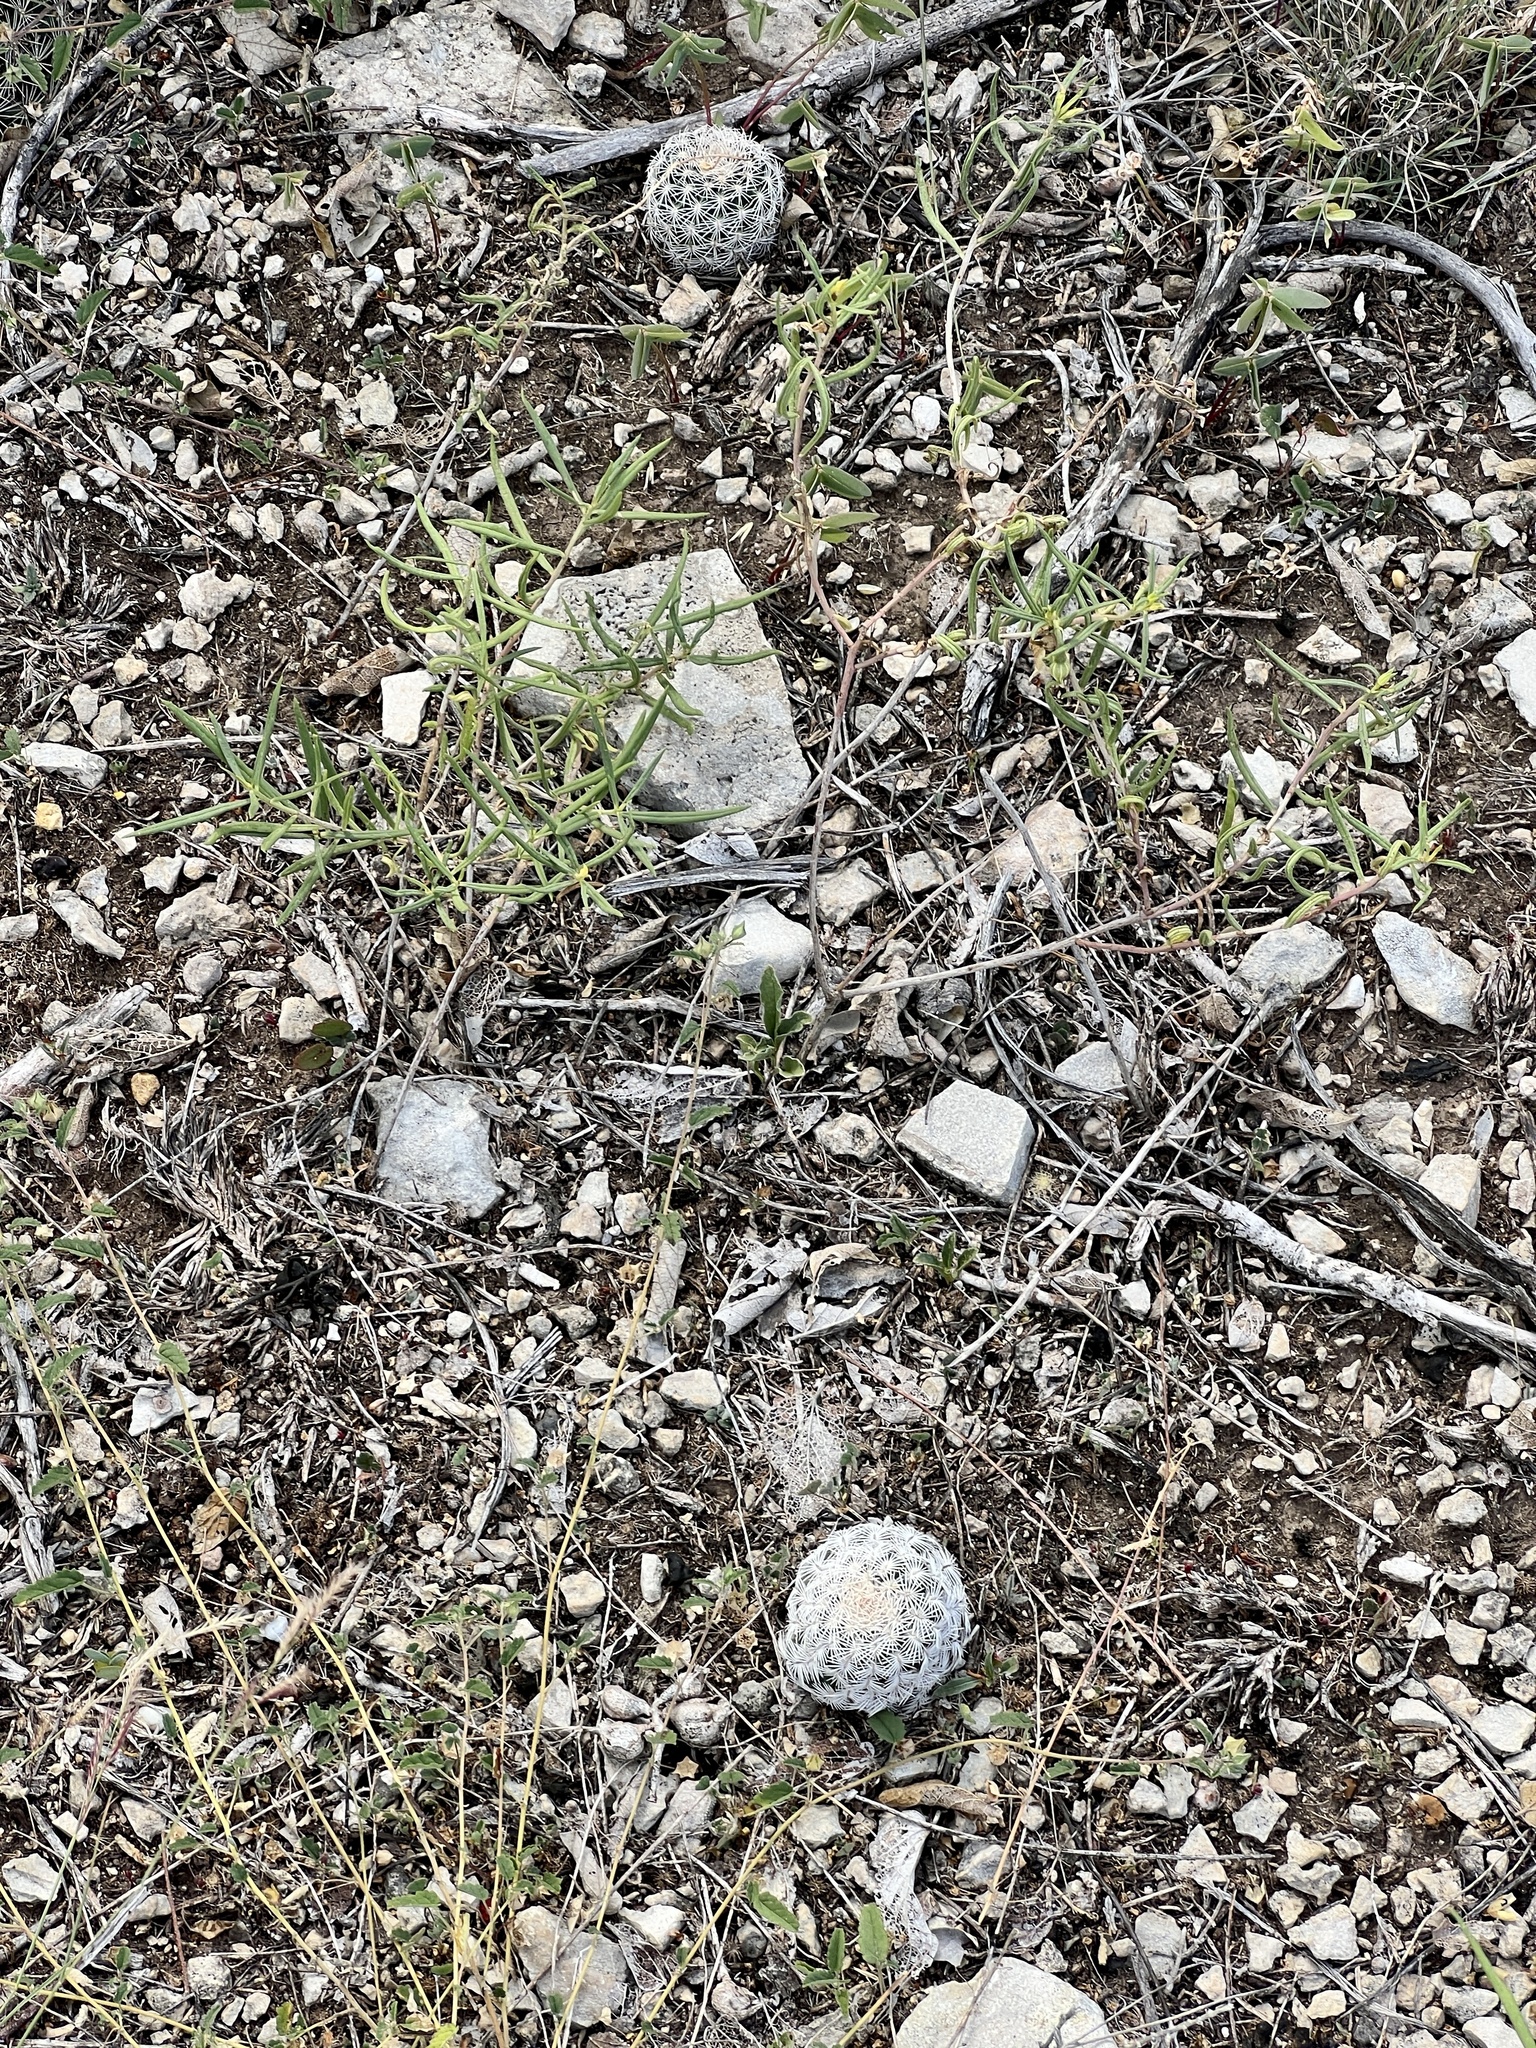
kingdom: Plantae
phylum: Tracheophyta
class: Magnoliopsida
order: Caryophyllales
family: Cactaceae
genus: Echinocereus
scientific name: Echinocereus reichenbachii
